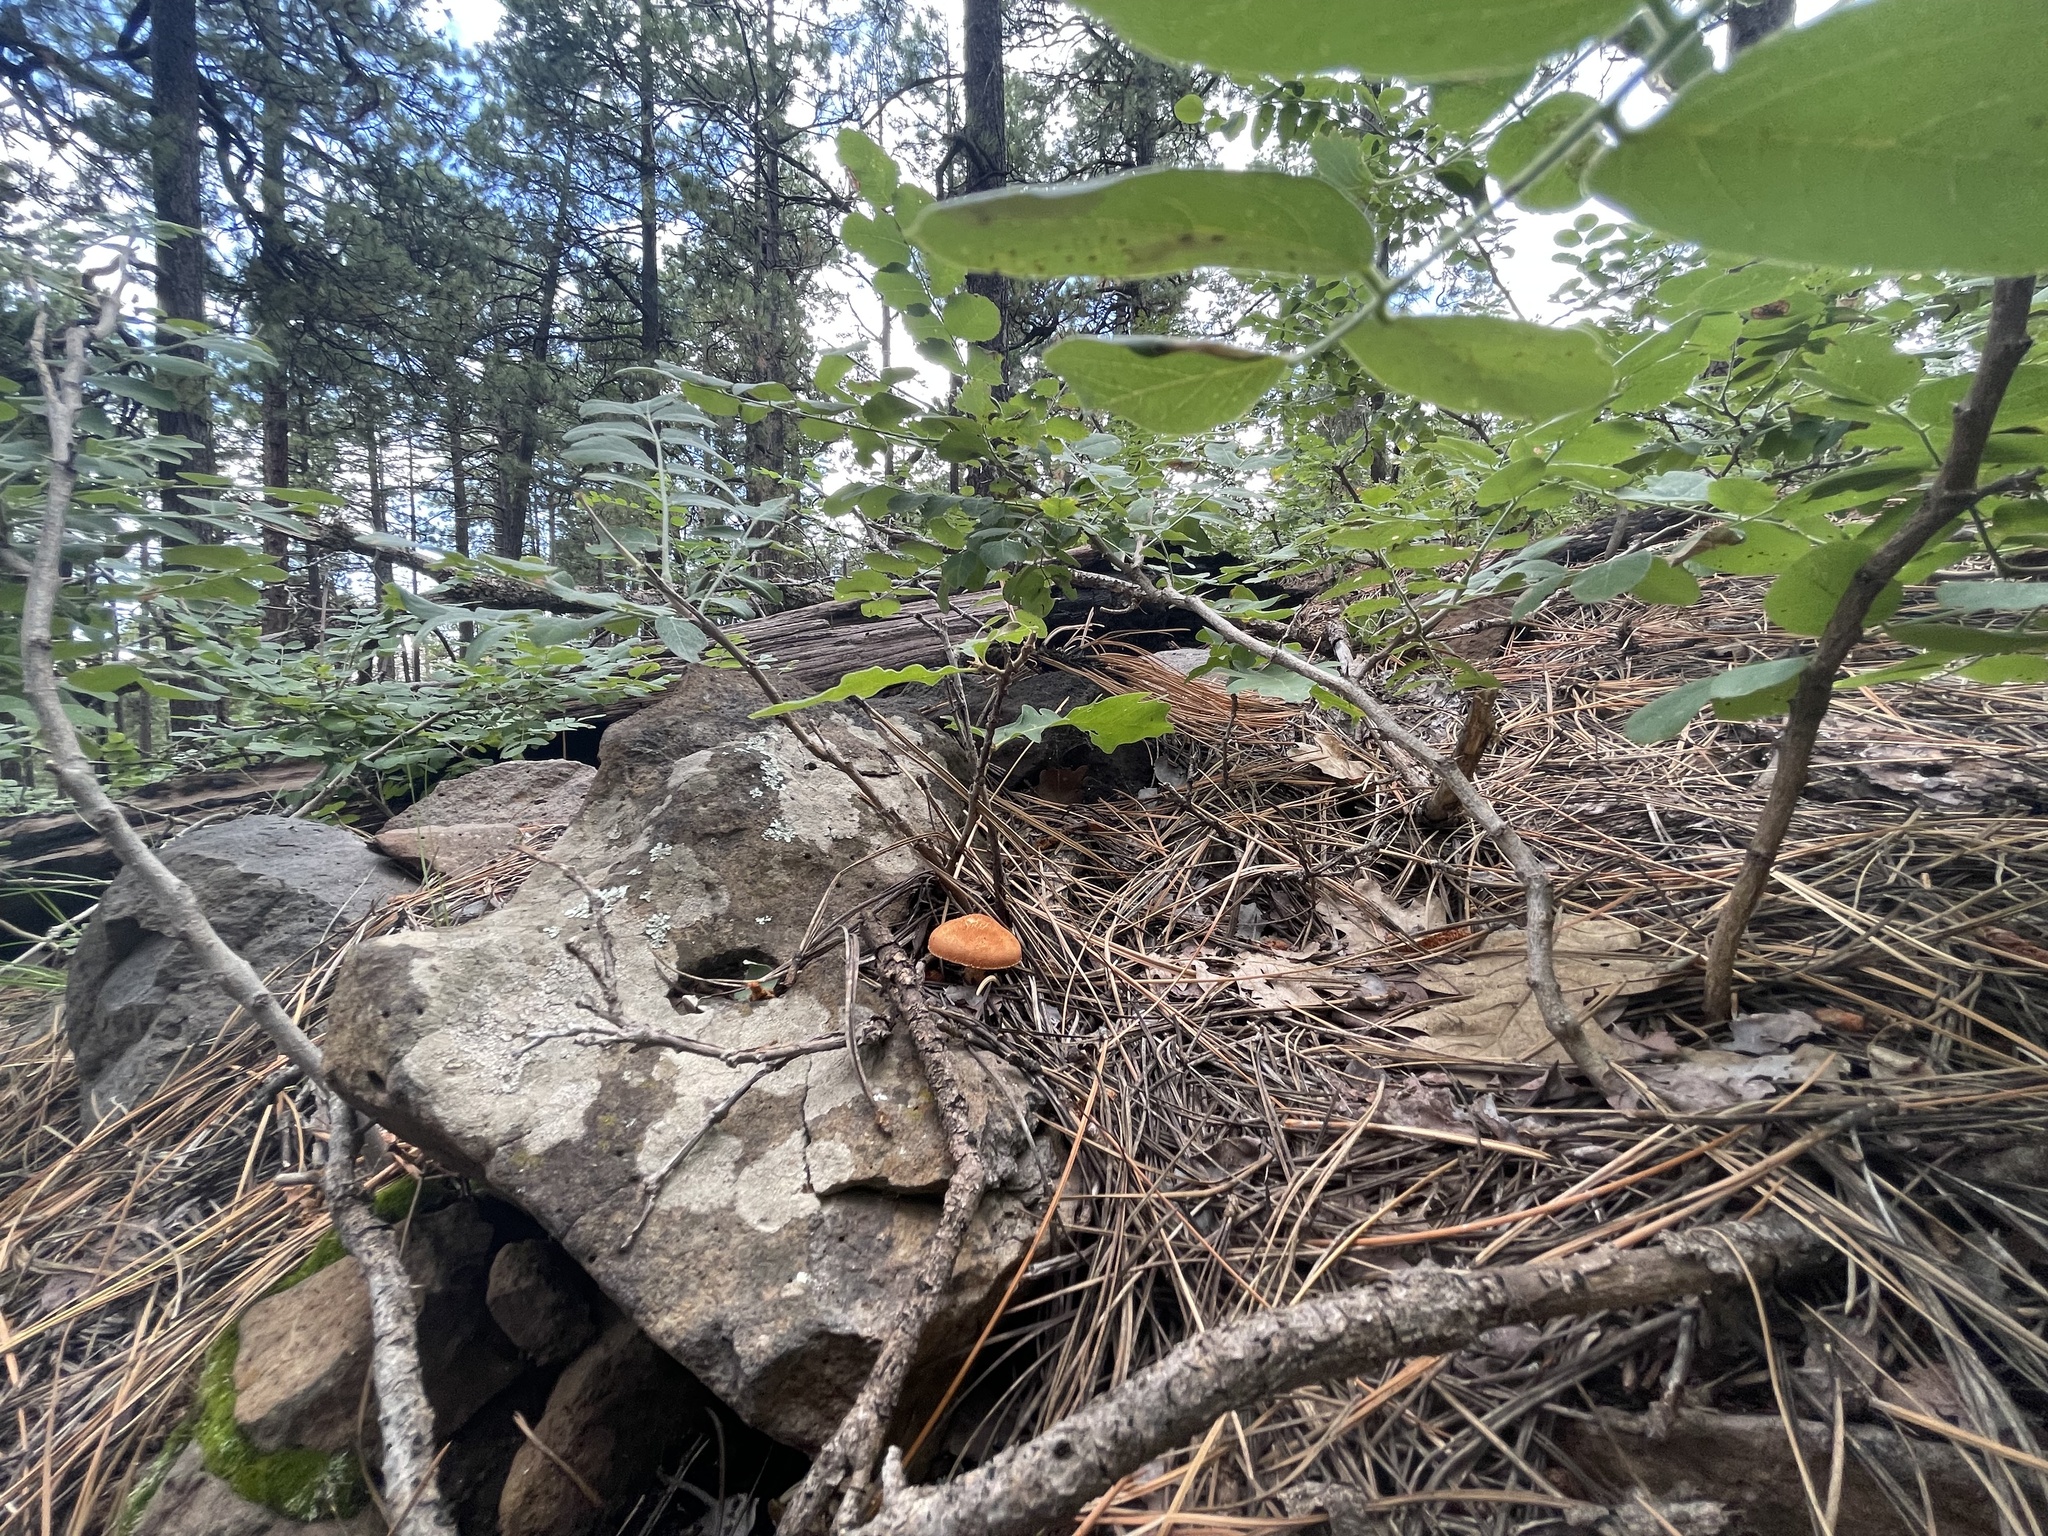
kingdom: Fungi
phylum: Basidiomycota
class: Agaricomycetes
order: Agaricales
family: Agaricaceae
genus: Cystodermella
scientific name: Cystodermella cinnabarina
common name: Cinnabar powdercap
